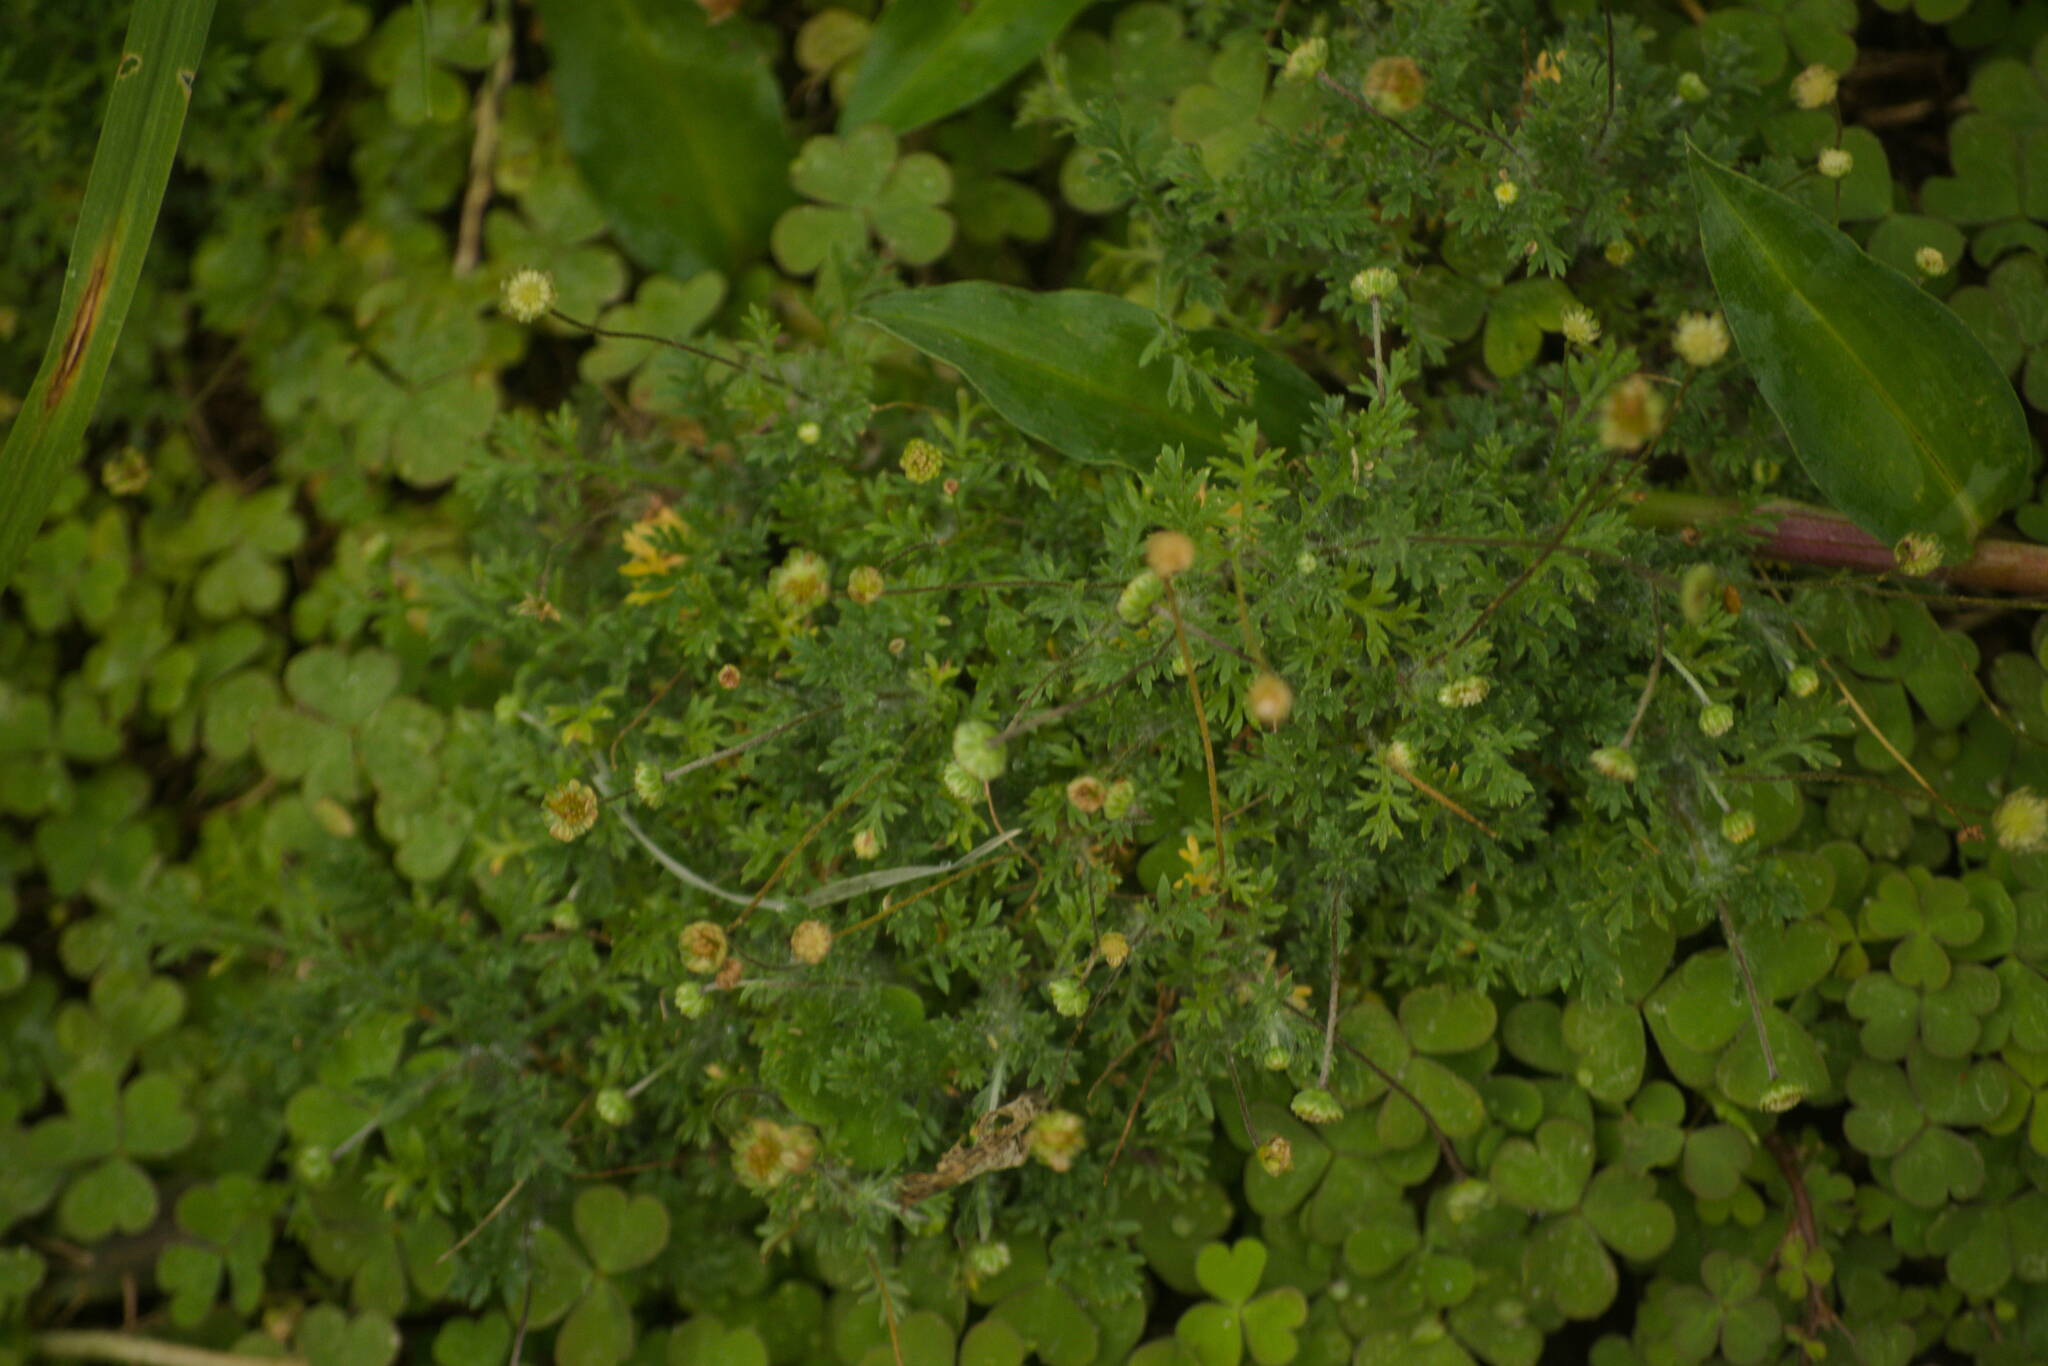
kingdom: Plantae
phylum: Tracheophyta
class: Magnoliopsida
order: Asterales
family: Asteraceae
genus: Cotula
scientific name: Cotula australis
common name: Australian waterbuttons
